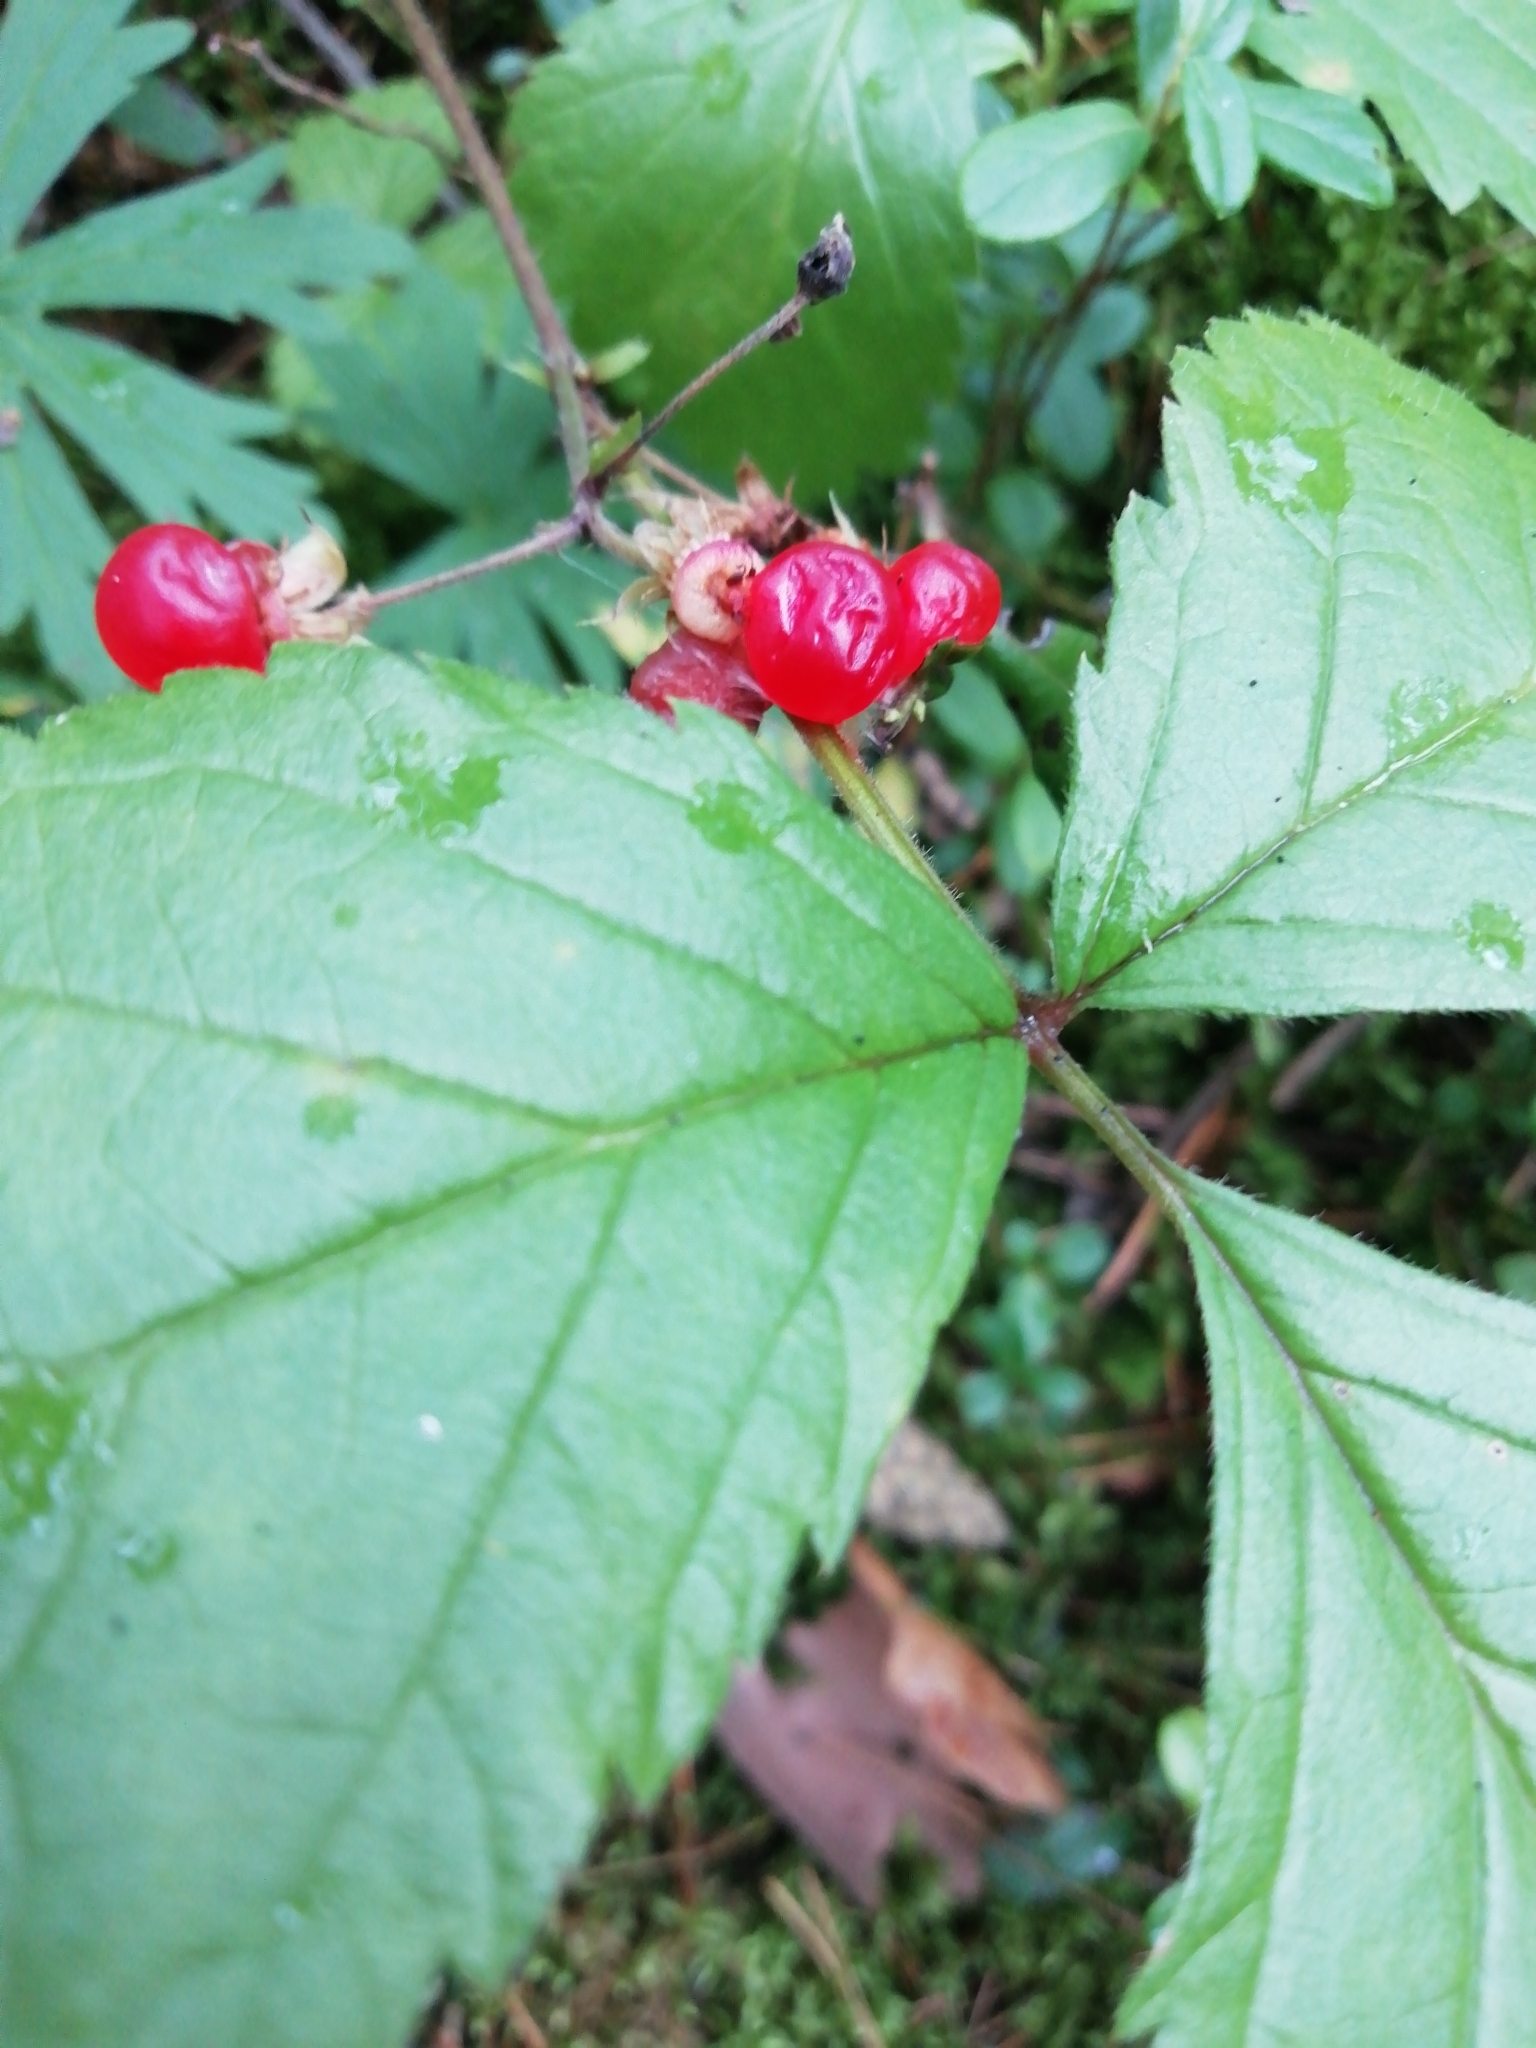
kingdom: Plantae
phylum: Tracheophyta
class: Magnoliopsida
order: Rosales
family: Rosaceae
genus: Rubus
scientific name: Rubus saxatilis
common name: Stone bramble
